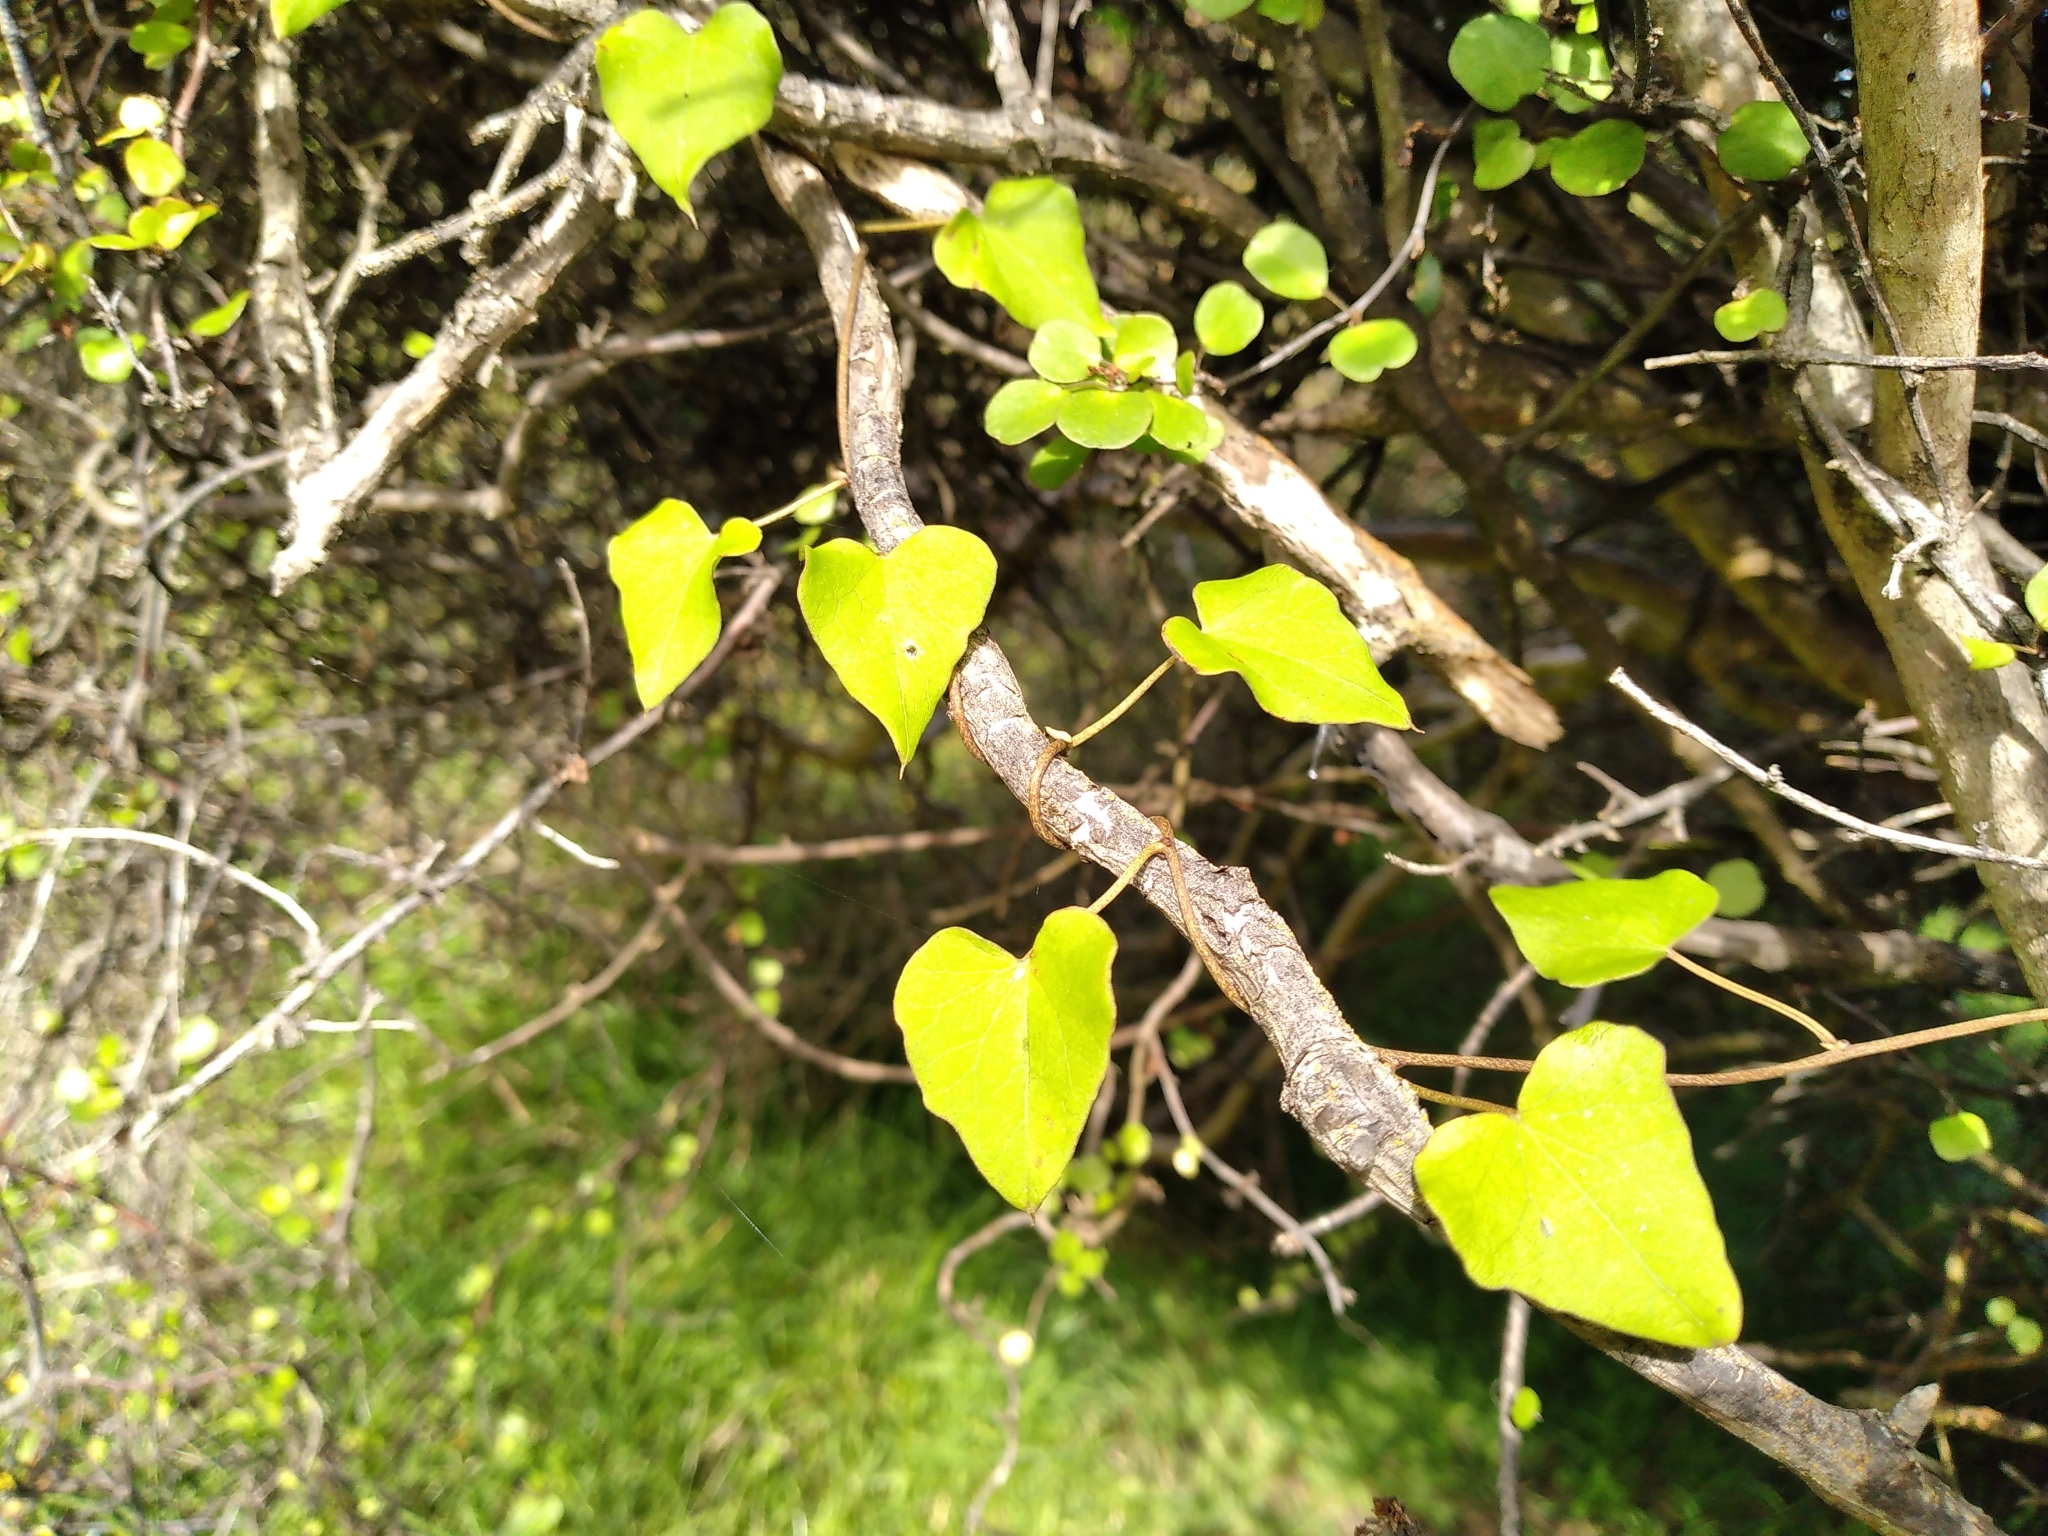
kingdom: Plantae
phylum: Tracheophyta
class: Magnoliopsida
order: Solanales
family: Convolvulaceae
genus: Calystegia
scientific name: Calystegia tuguriorum
